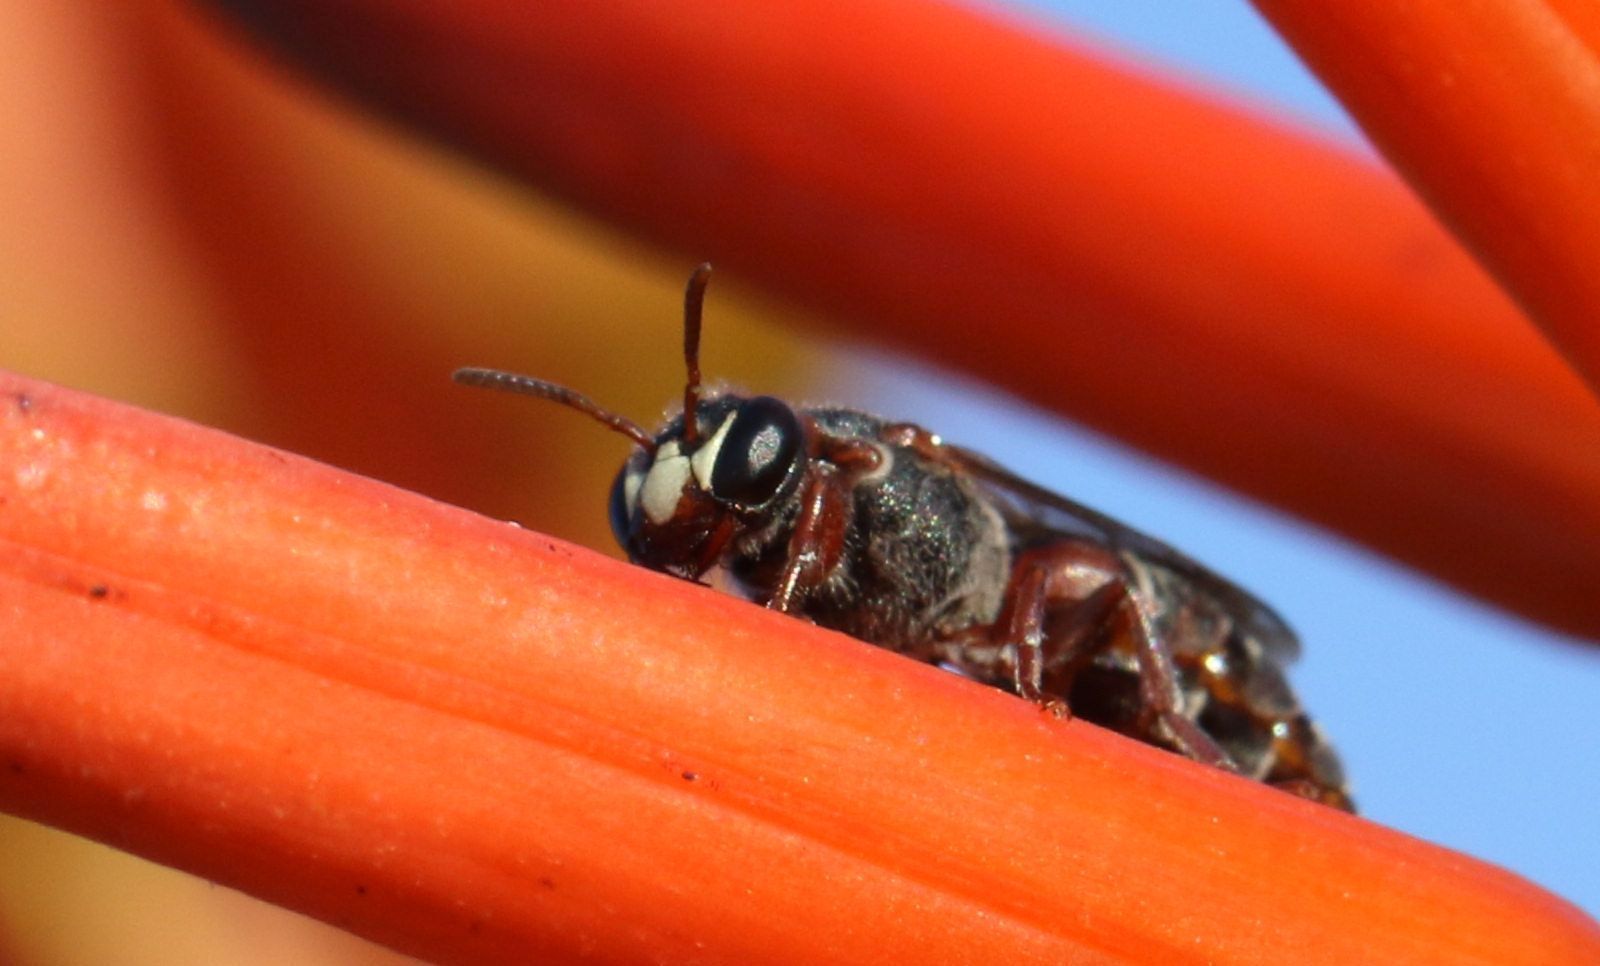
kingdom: Animalia
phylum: Arthropoda
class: Insecta
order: Hymenoptera
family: Colletidae
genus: Hylaeus
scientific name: Hylaeus heraldicus
